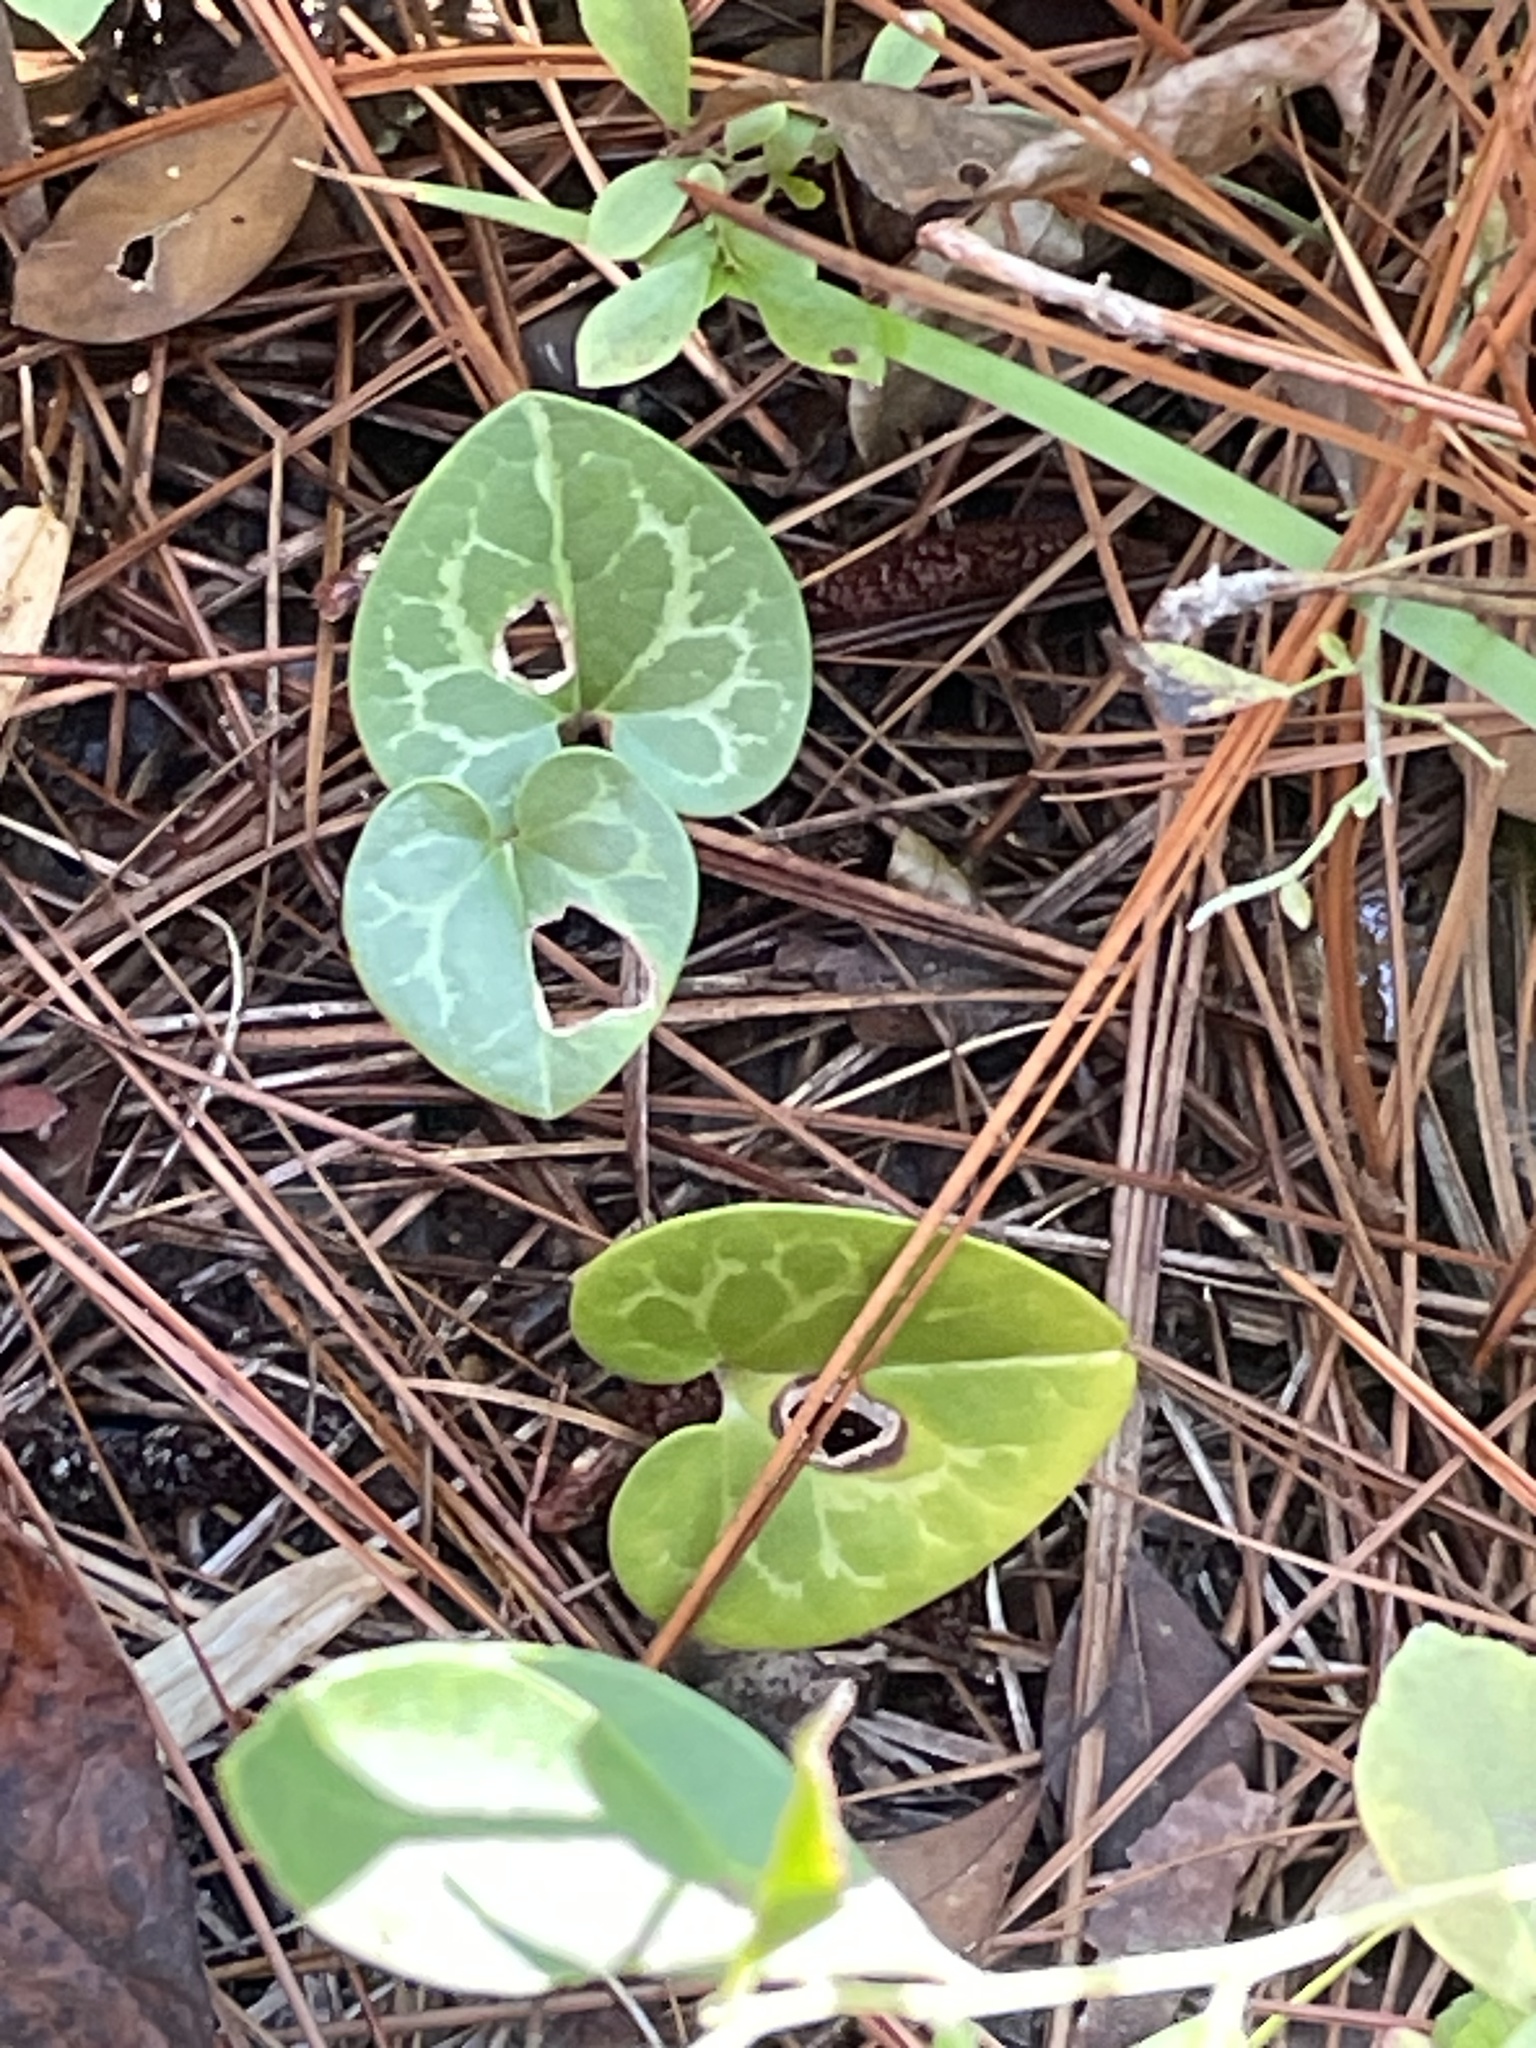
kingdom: Plantae
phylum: Tracheophyta
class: Magnoliopsida
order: Piperales
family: Aristolochiaceae
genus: Hexastylis
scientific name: Hexastylis sorriei
